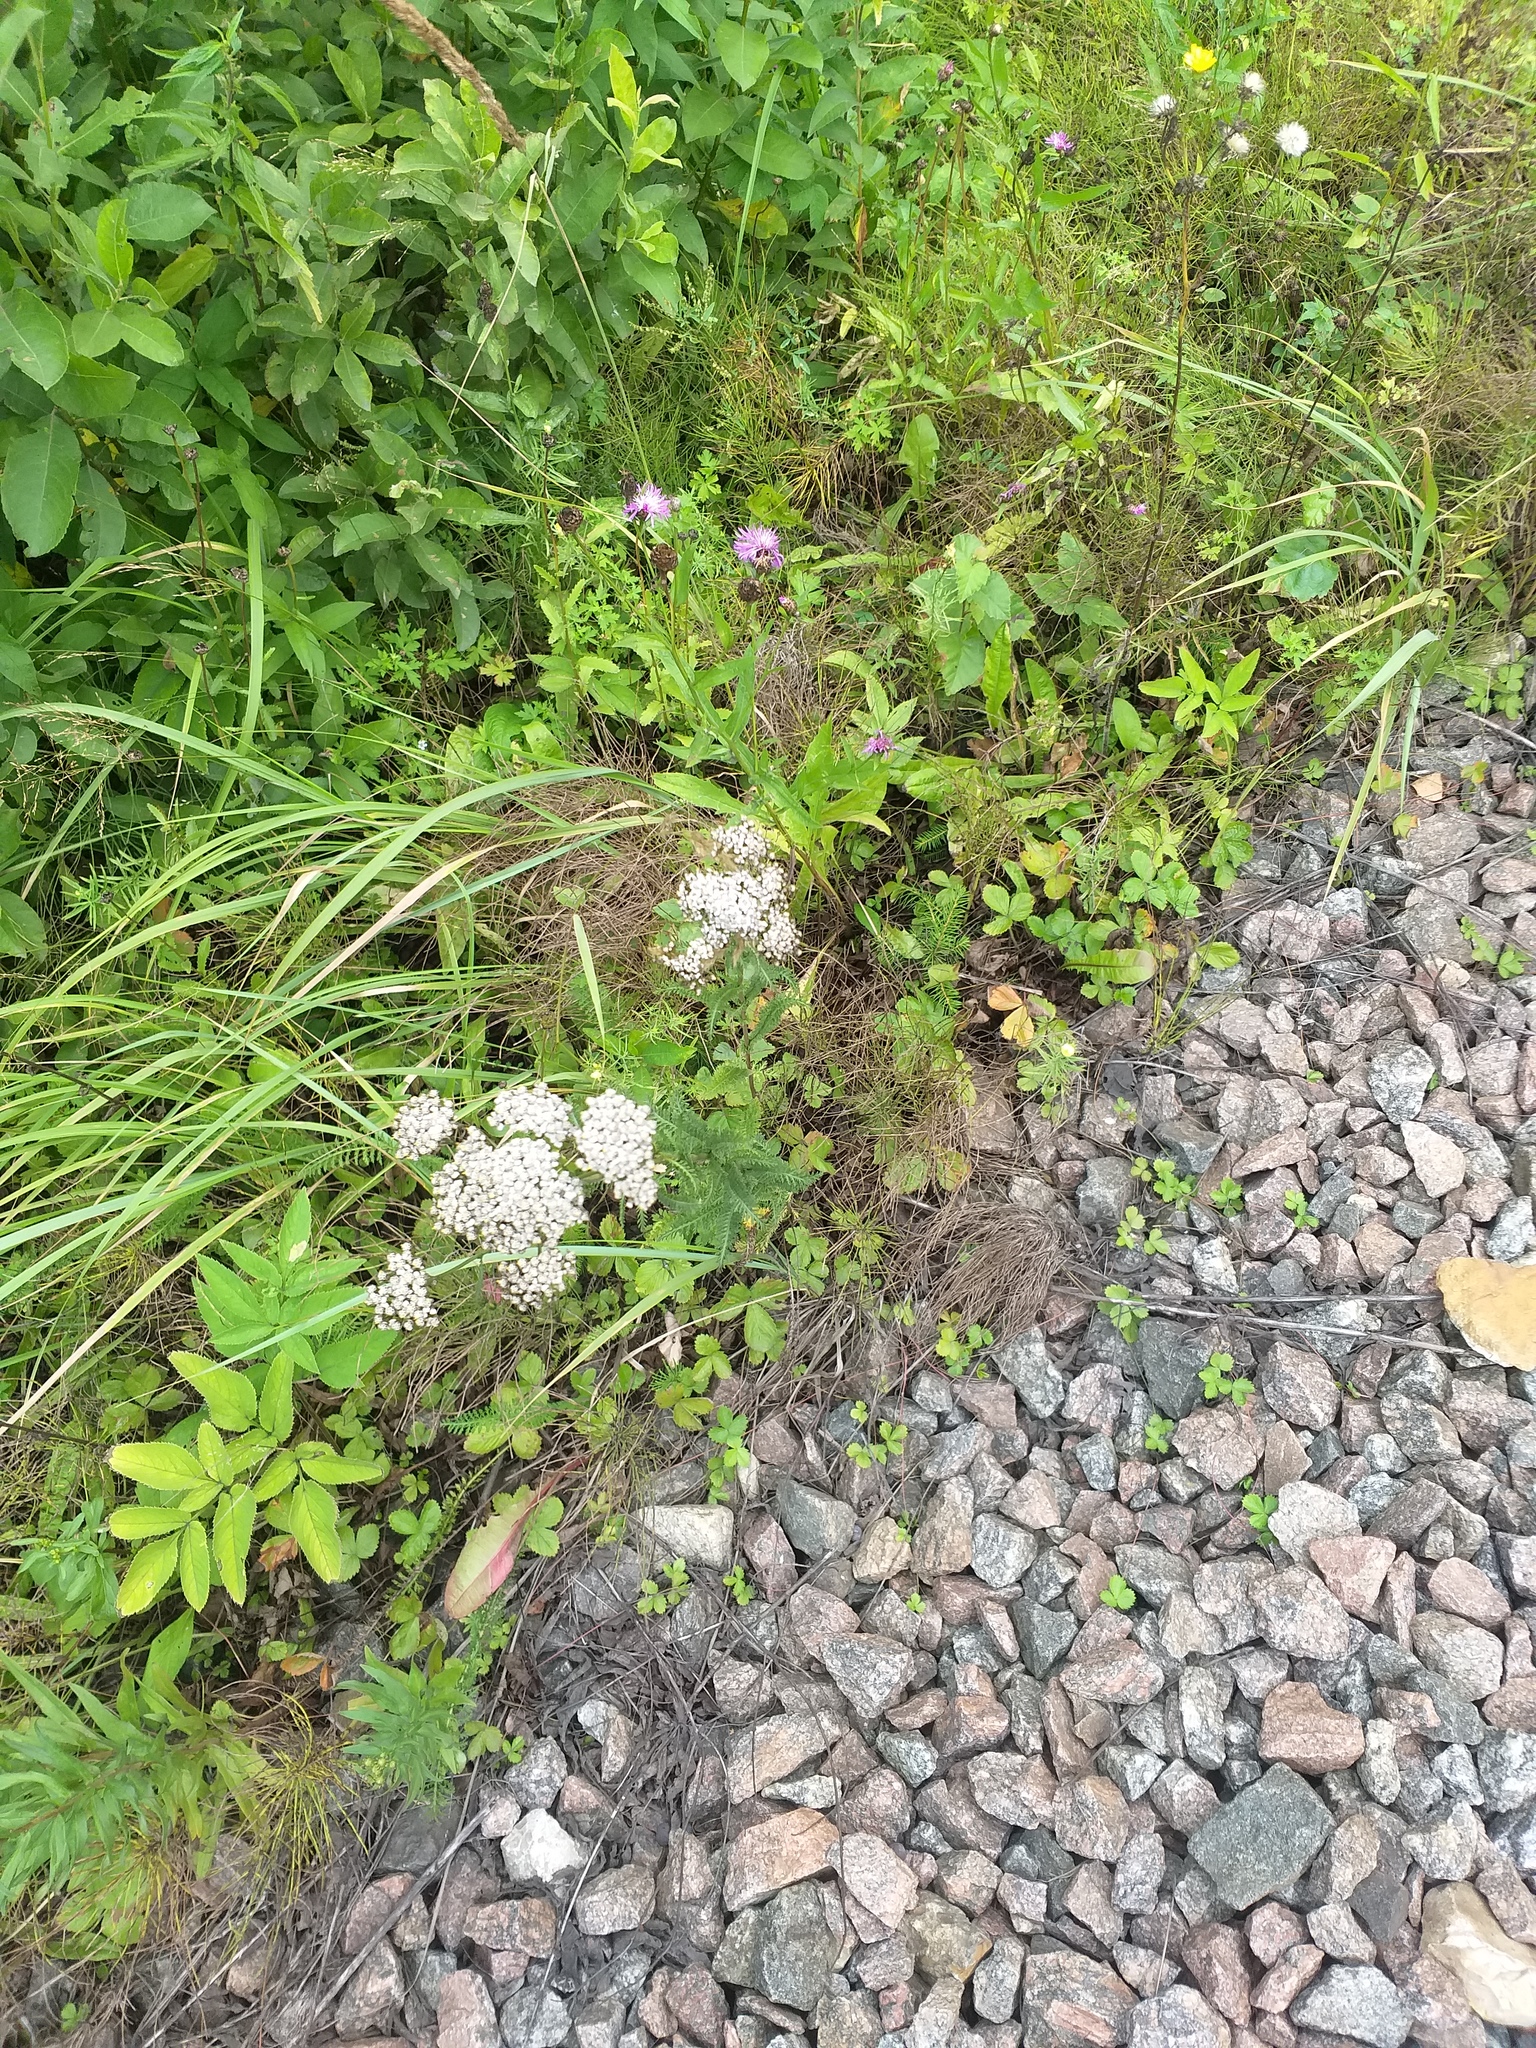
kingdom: Plantae
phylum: Tracheophyta
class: Magnoliopsida
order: Asterales
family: Asteraceae
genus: Achillea
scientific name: Achillea millefolium
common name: Yarrow
